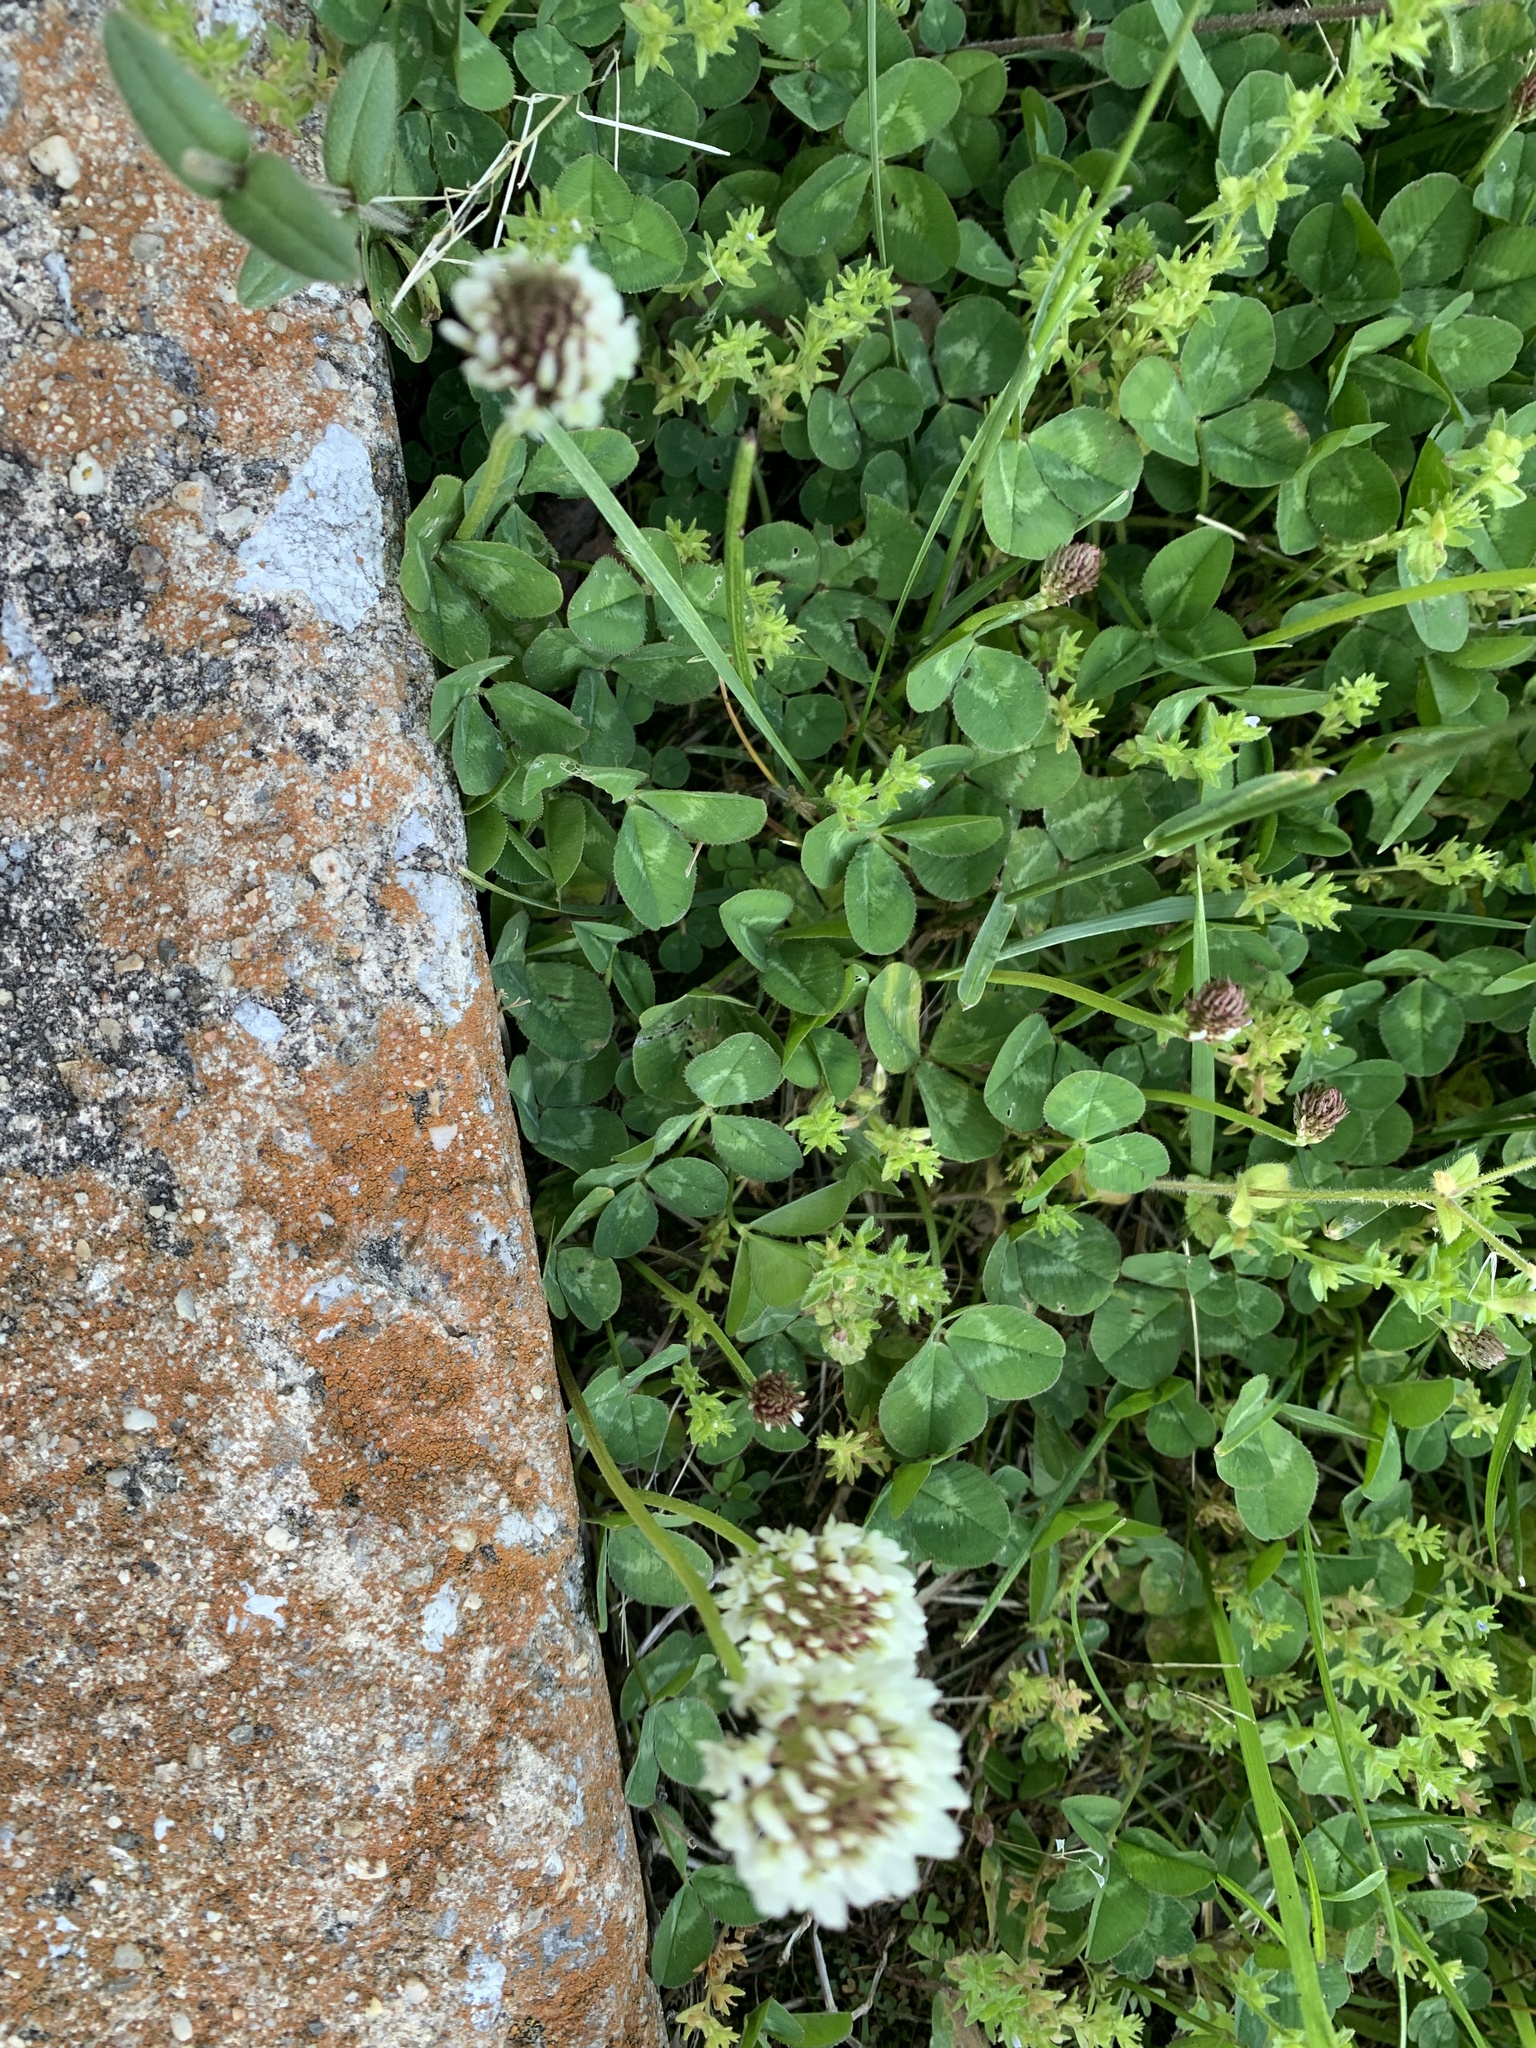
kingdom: Plantae
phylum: Tracheophyta
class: Magnoliopsida
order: Fabales
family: Fabaceae
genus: Trifolium
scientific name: Trifolium repens
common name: White clover
